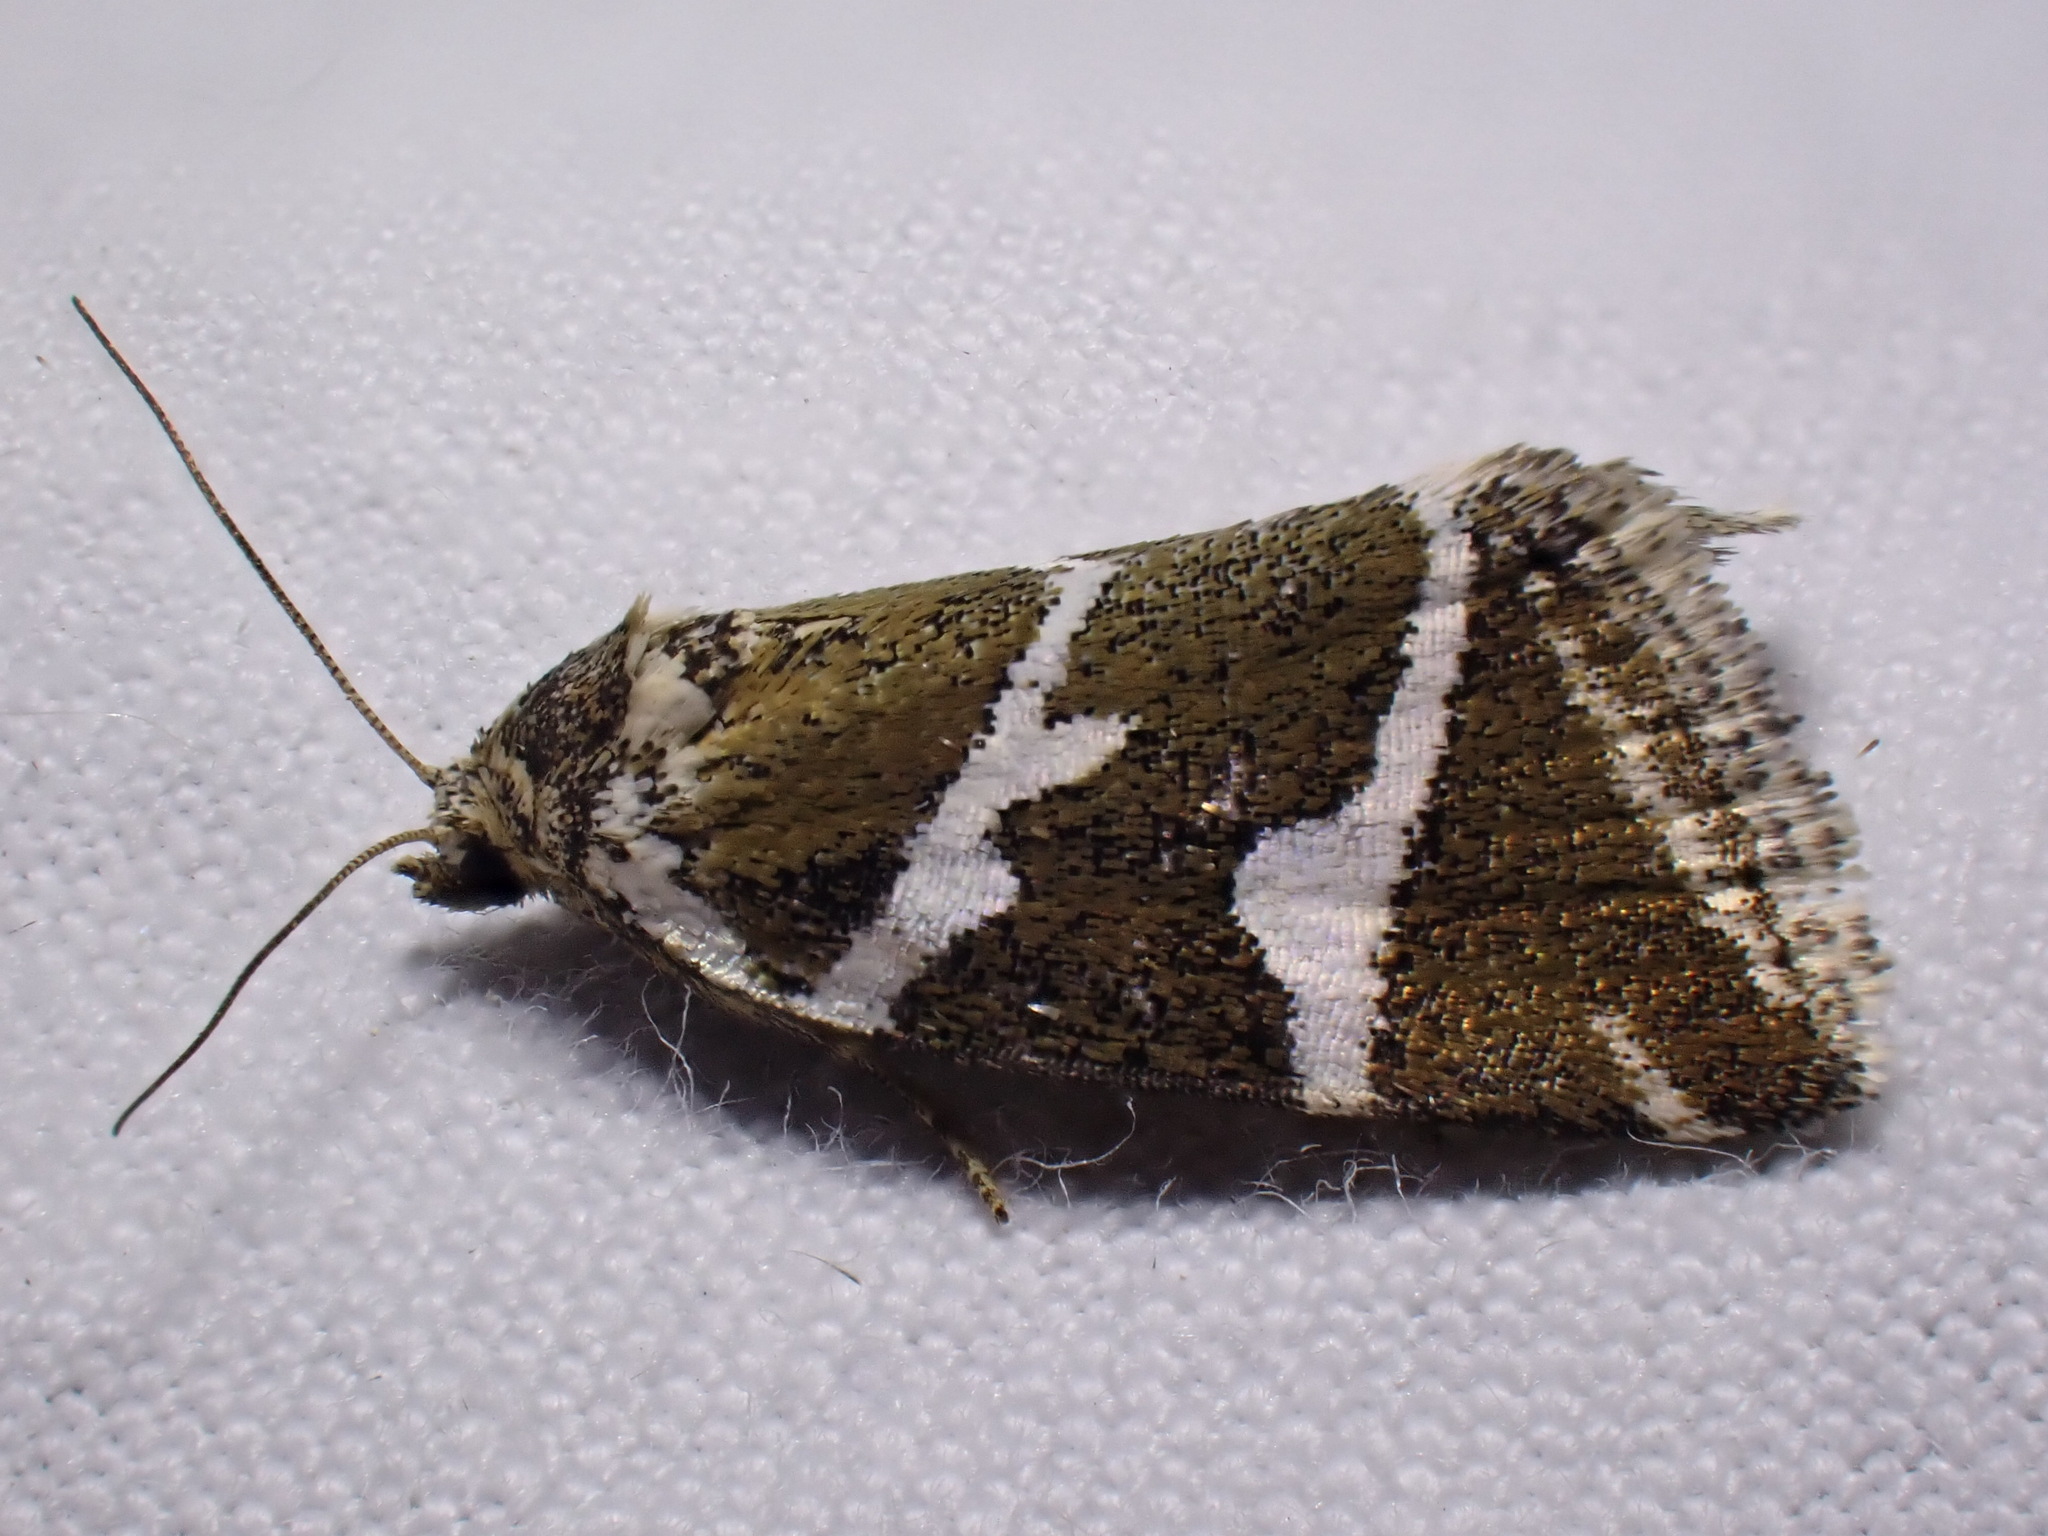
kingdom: Animalia
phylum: Arthropoda
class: Insecta
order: Lepidoptera
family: Noctuidae
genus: Deltote
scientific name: Deltote bankiana
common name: Silver barred
